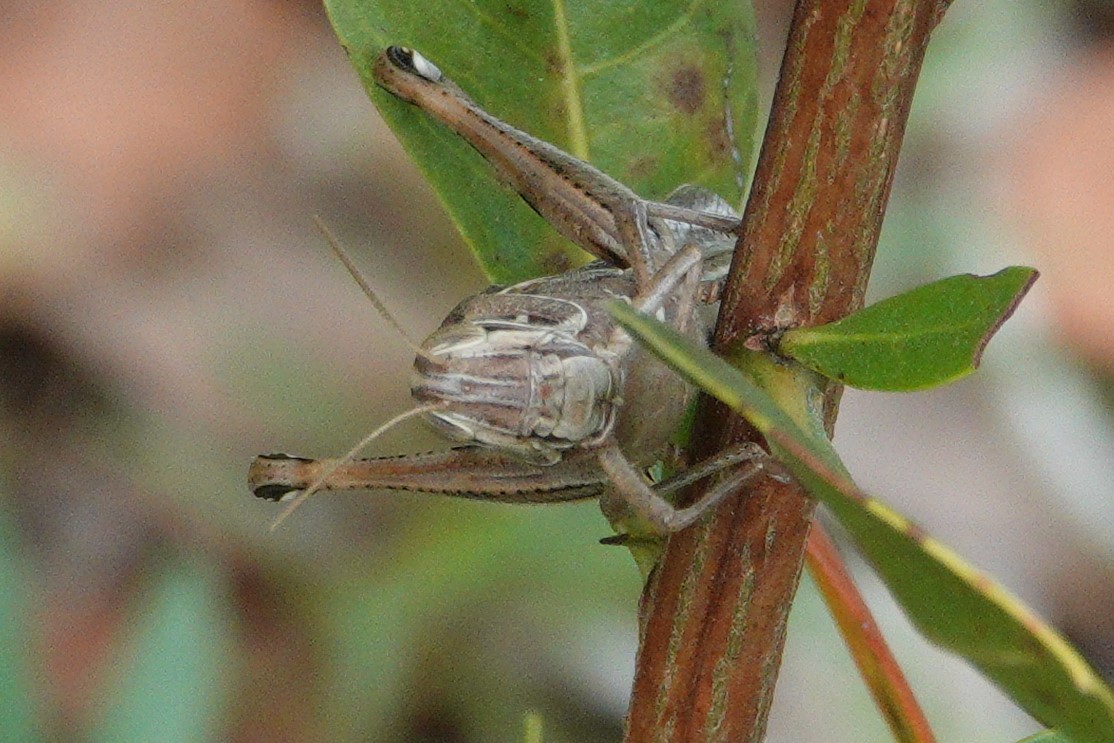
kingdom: Animalia
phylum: Arthropoda
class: Insecta
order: Orthoptera
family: Acrididae
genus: Schistocerca
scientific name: Schistocerca americana
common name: American bird locust
